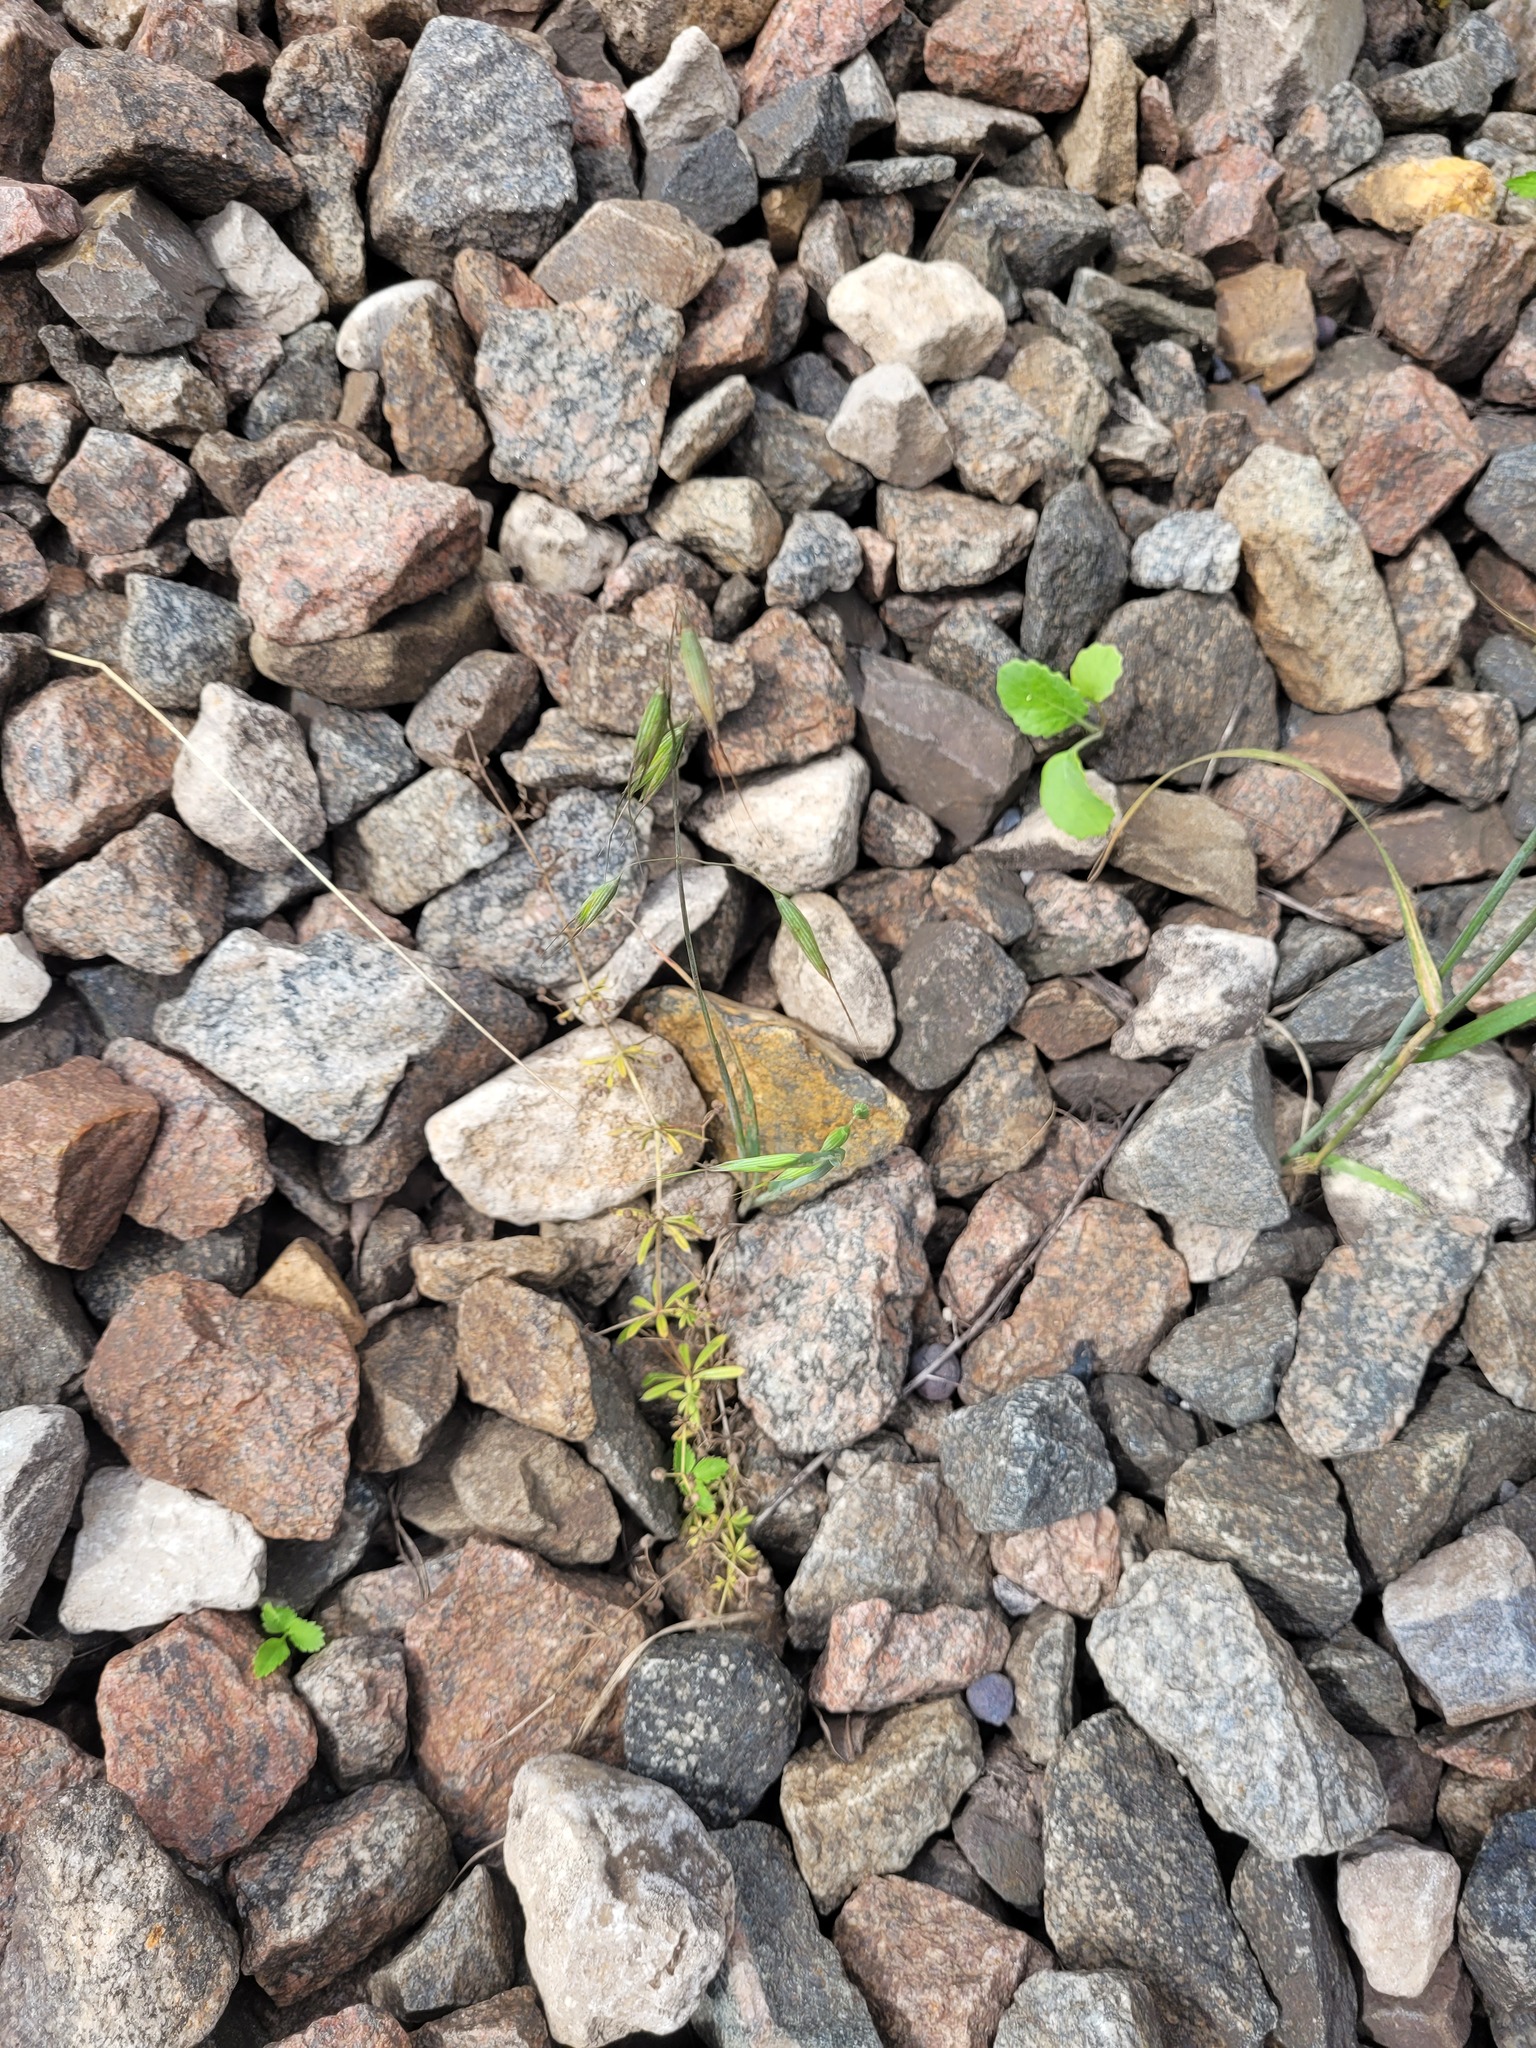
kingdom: Plantae
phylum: Tracheophyta
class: Liliopsida
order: Poales
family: Poaceae
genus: Avena
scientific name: Avena fatua
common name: Wild oat
